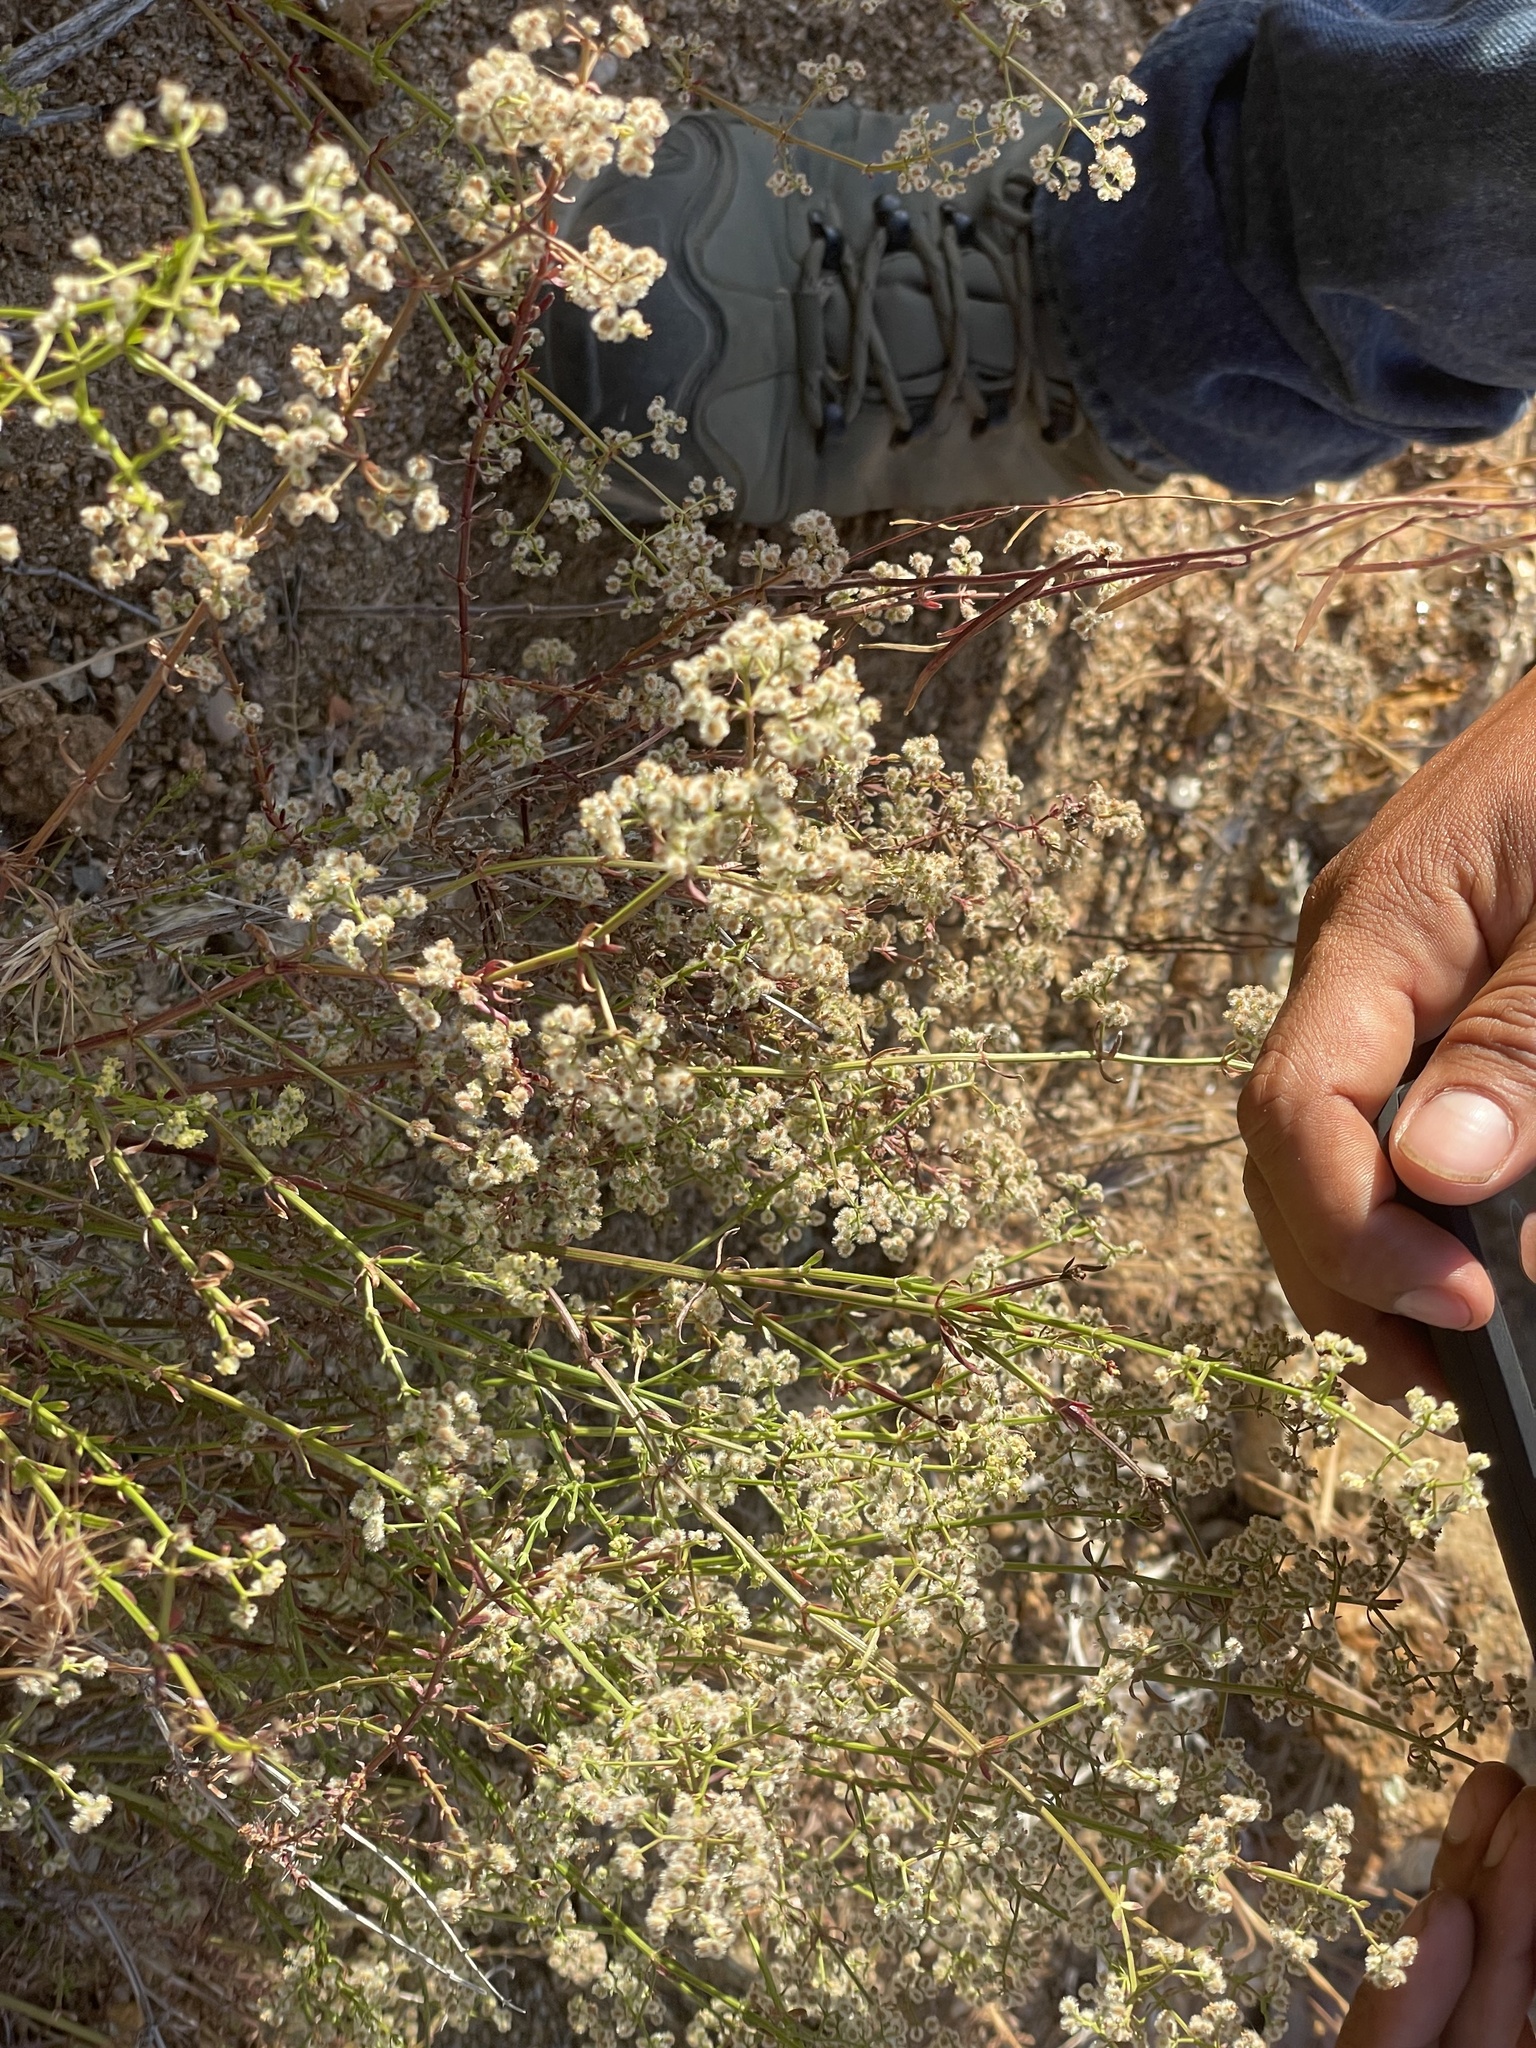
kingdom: Plantae
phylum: Tracheophyta
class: Magnoliopsida
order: Gentianales
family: Rubiaceae
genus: Galium
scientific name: Galium angustifolium
